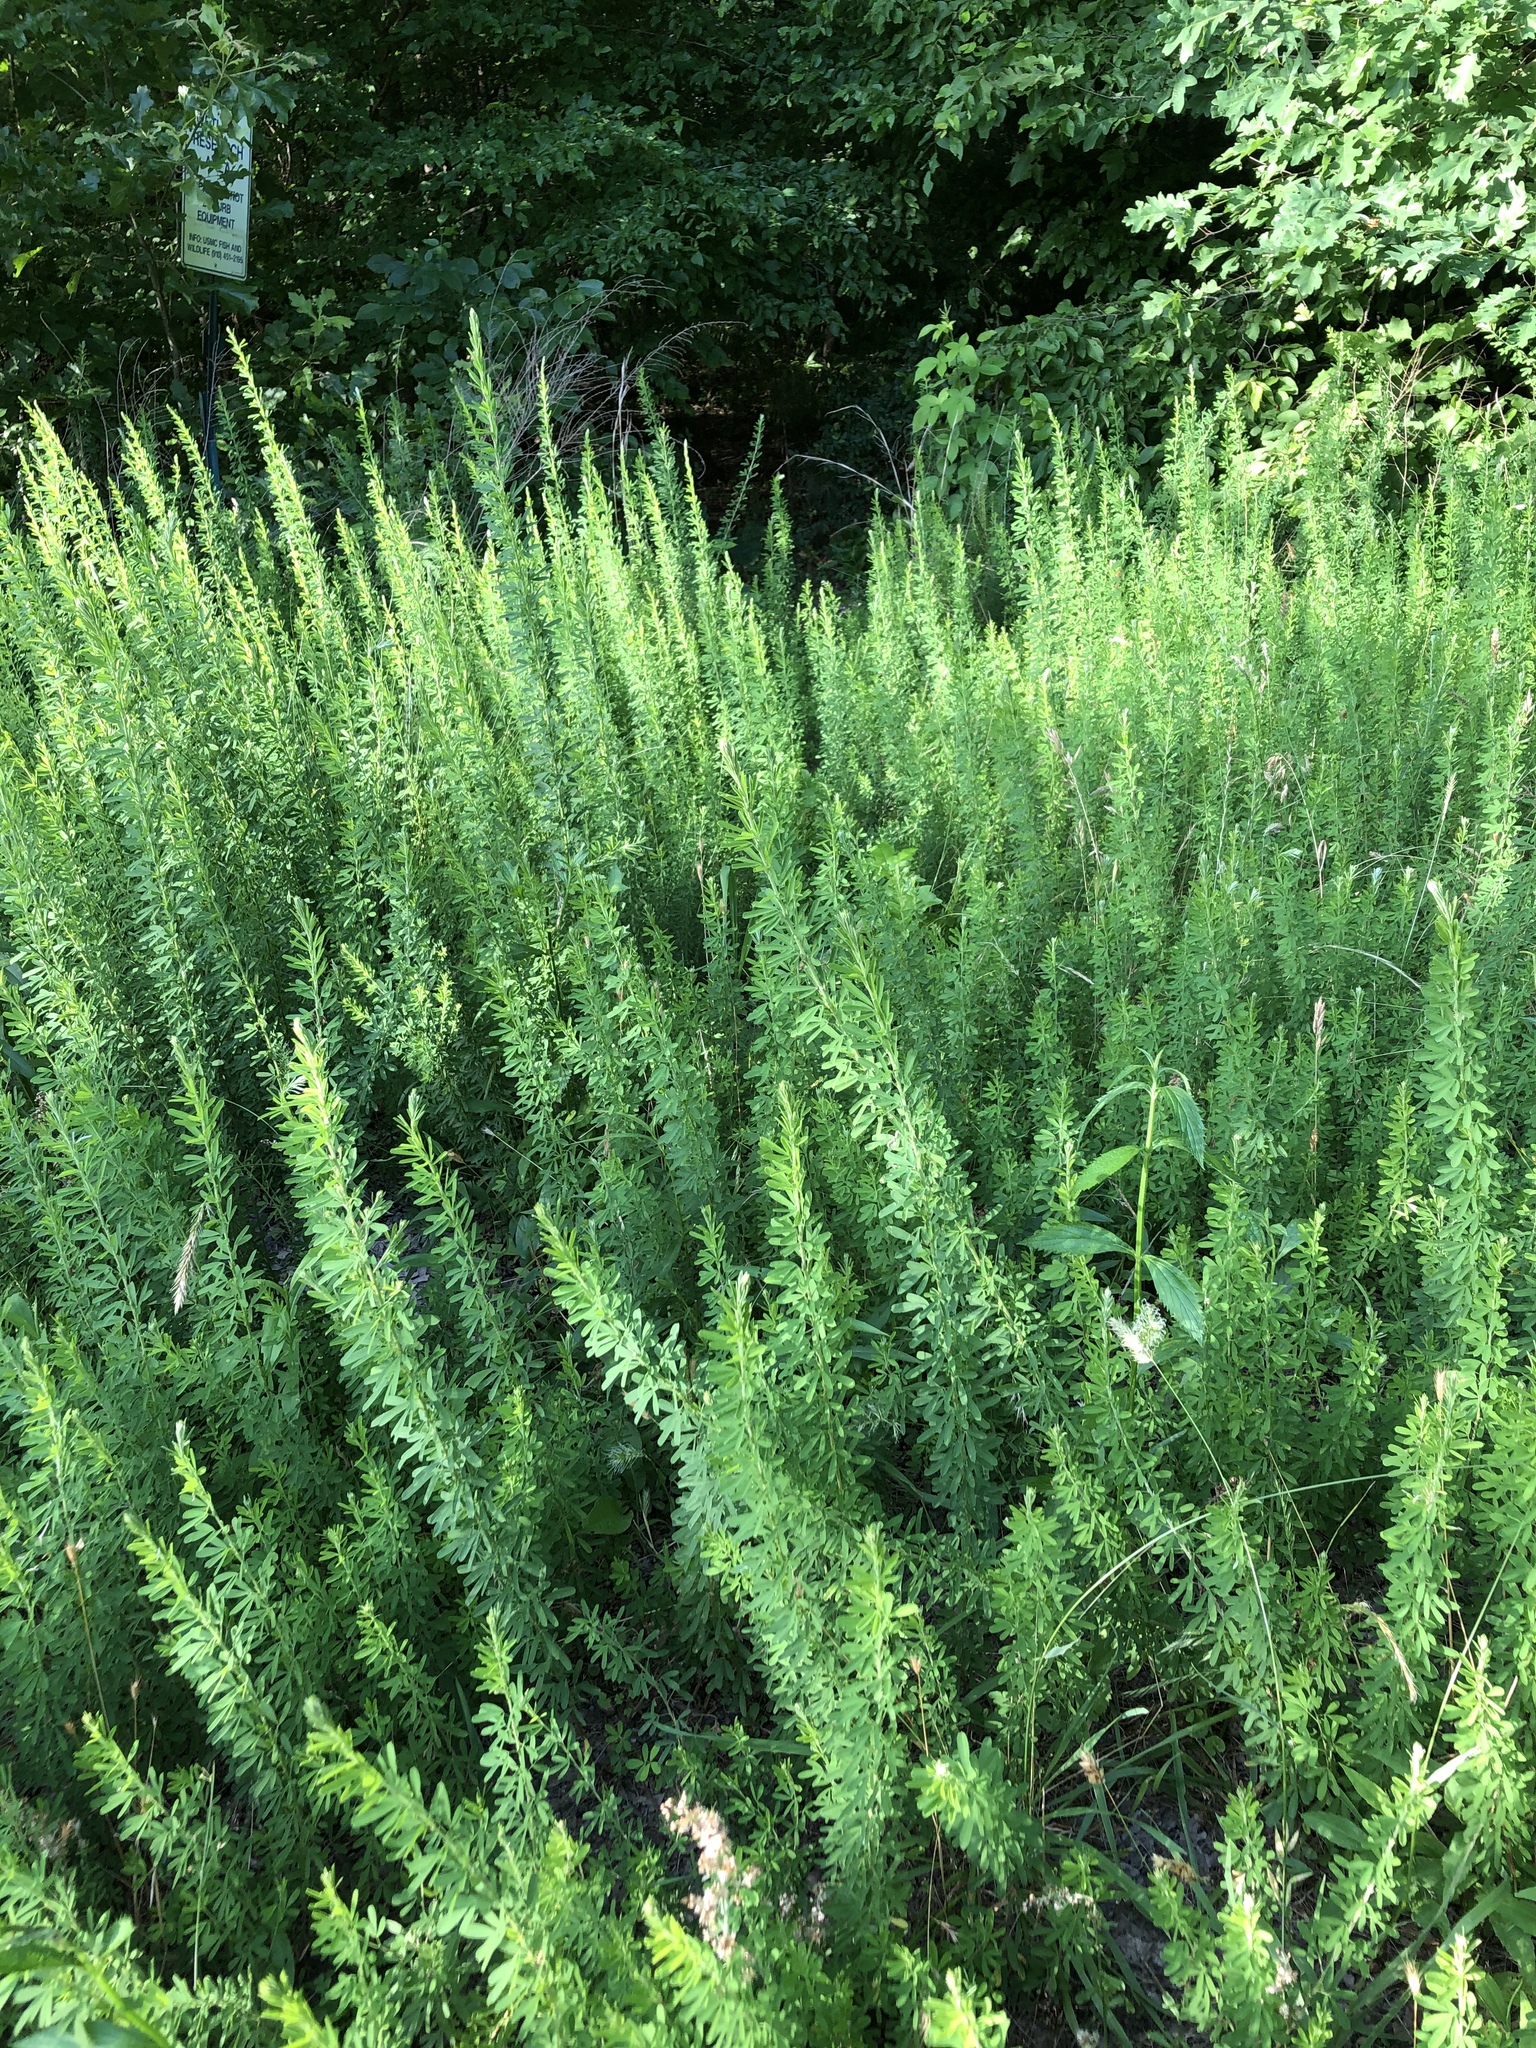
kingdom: Plantae
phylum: Tracheophyta
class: Magnoliopsida
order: Fabales
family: Fabaceae
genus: Lespedeza
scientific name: Lespedeza cuneata
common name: Chinese bush-clover
